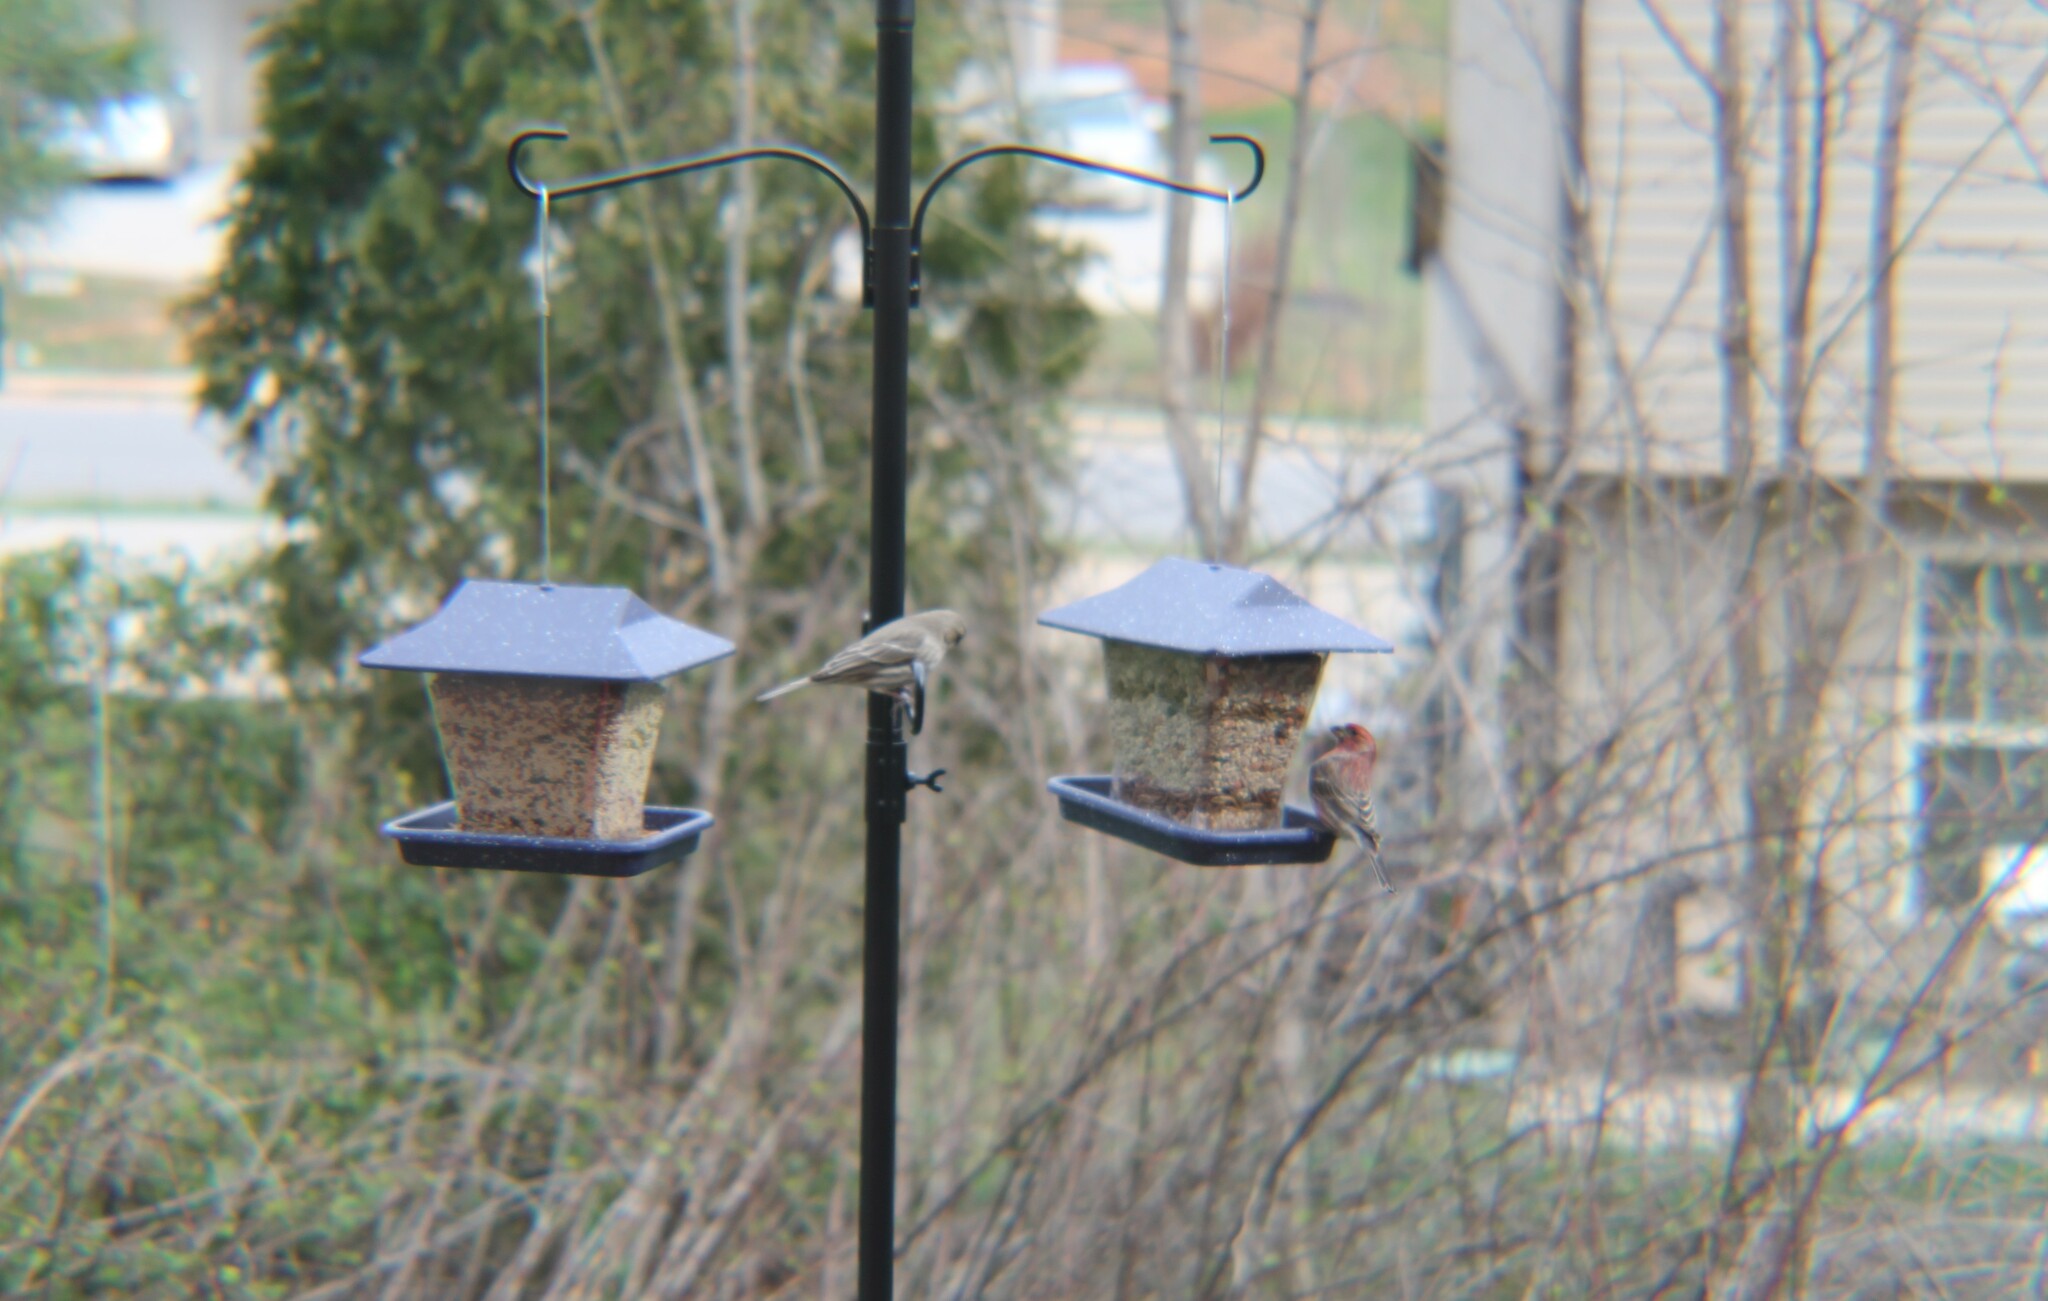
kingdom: Animalia
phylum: Chordata
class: Aves
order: Passeriformes
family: Fringillidae
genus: Haemorhous
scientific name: Haemorhous mexicanus
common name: House finch
